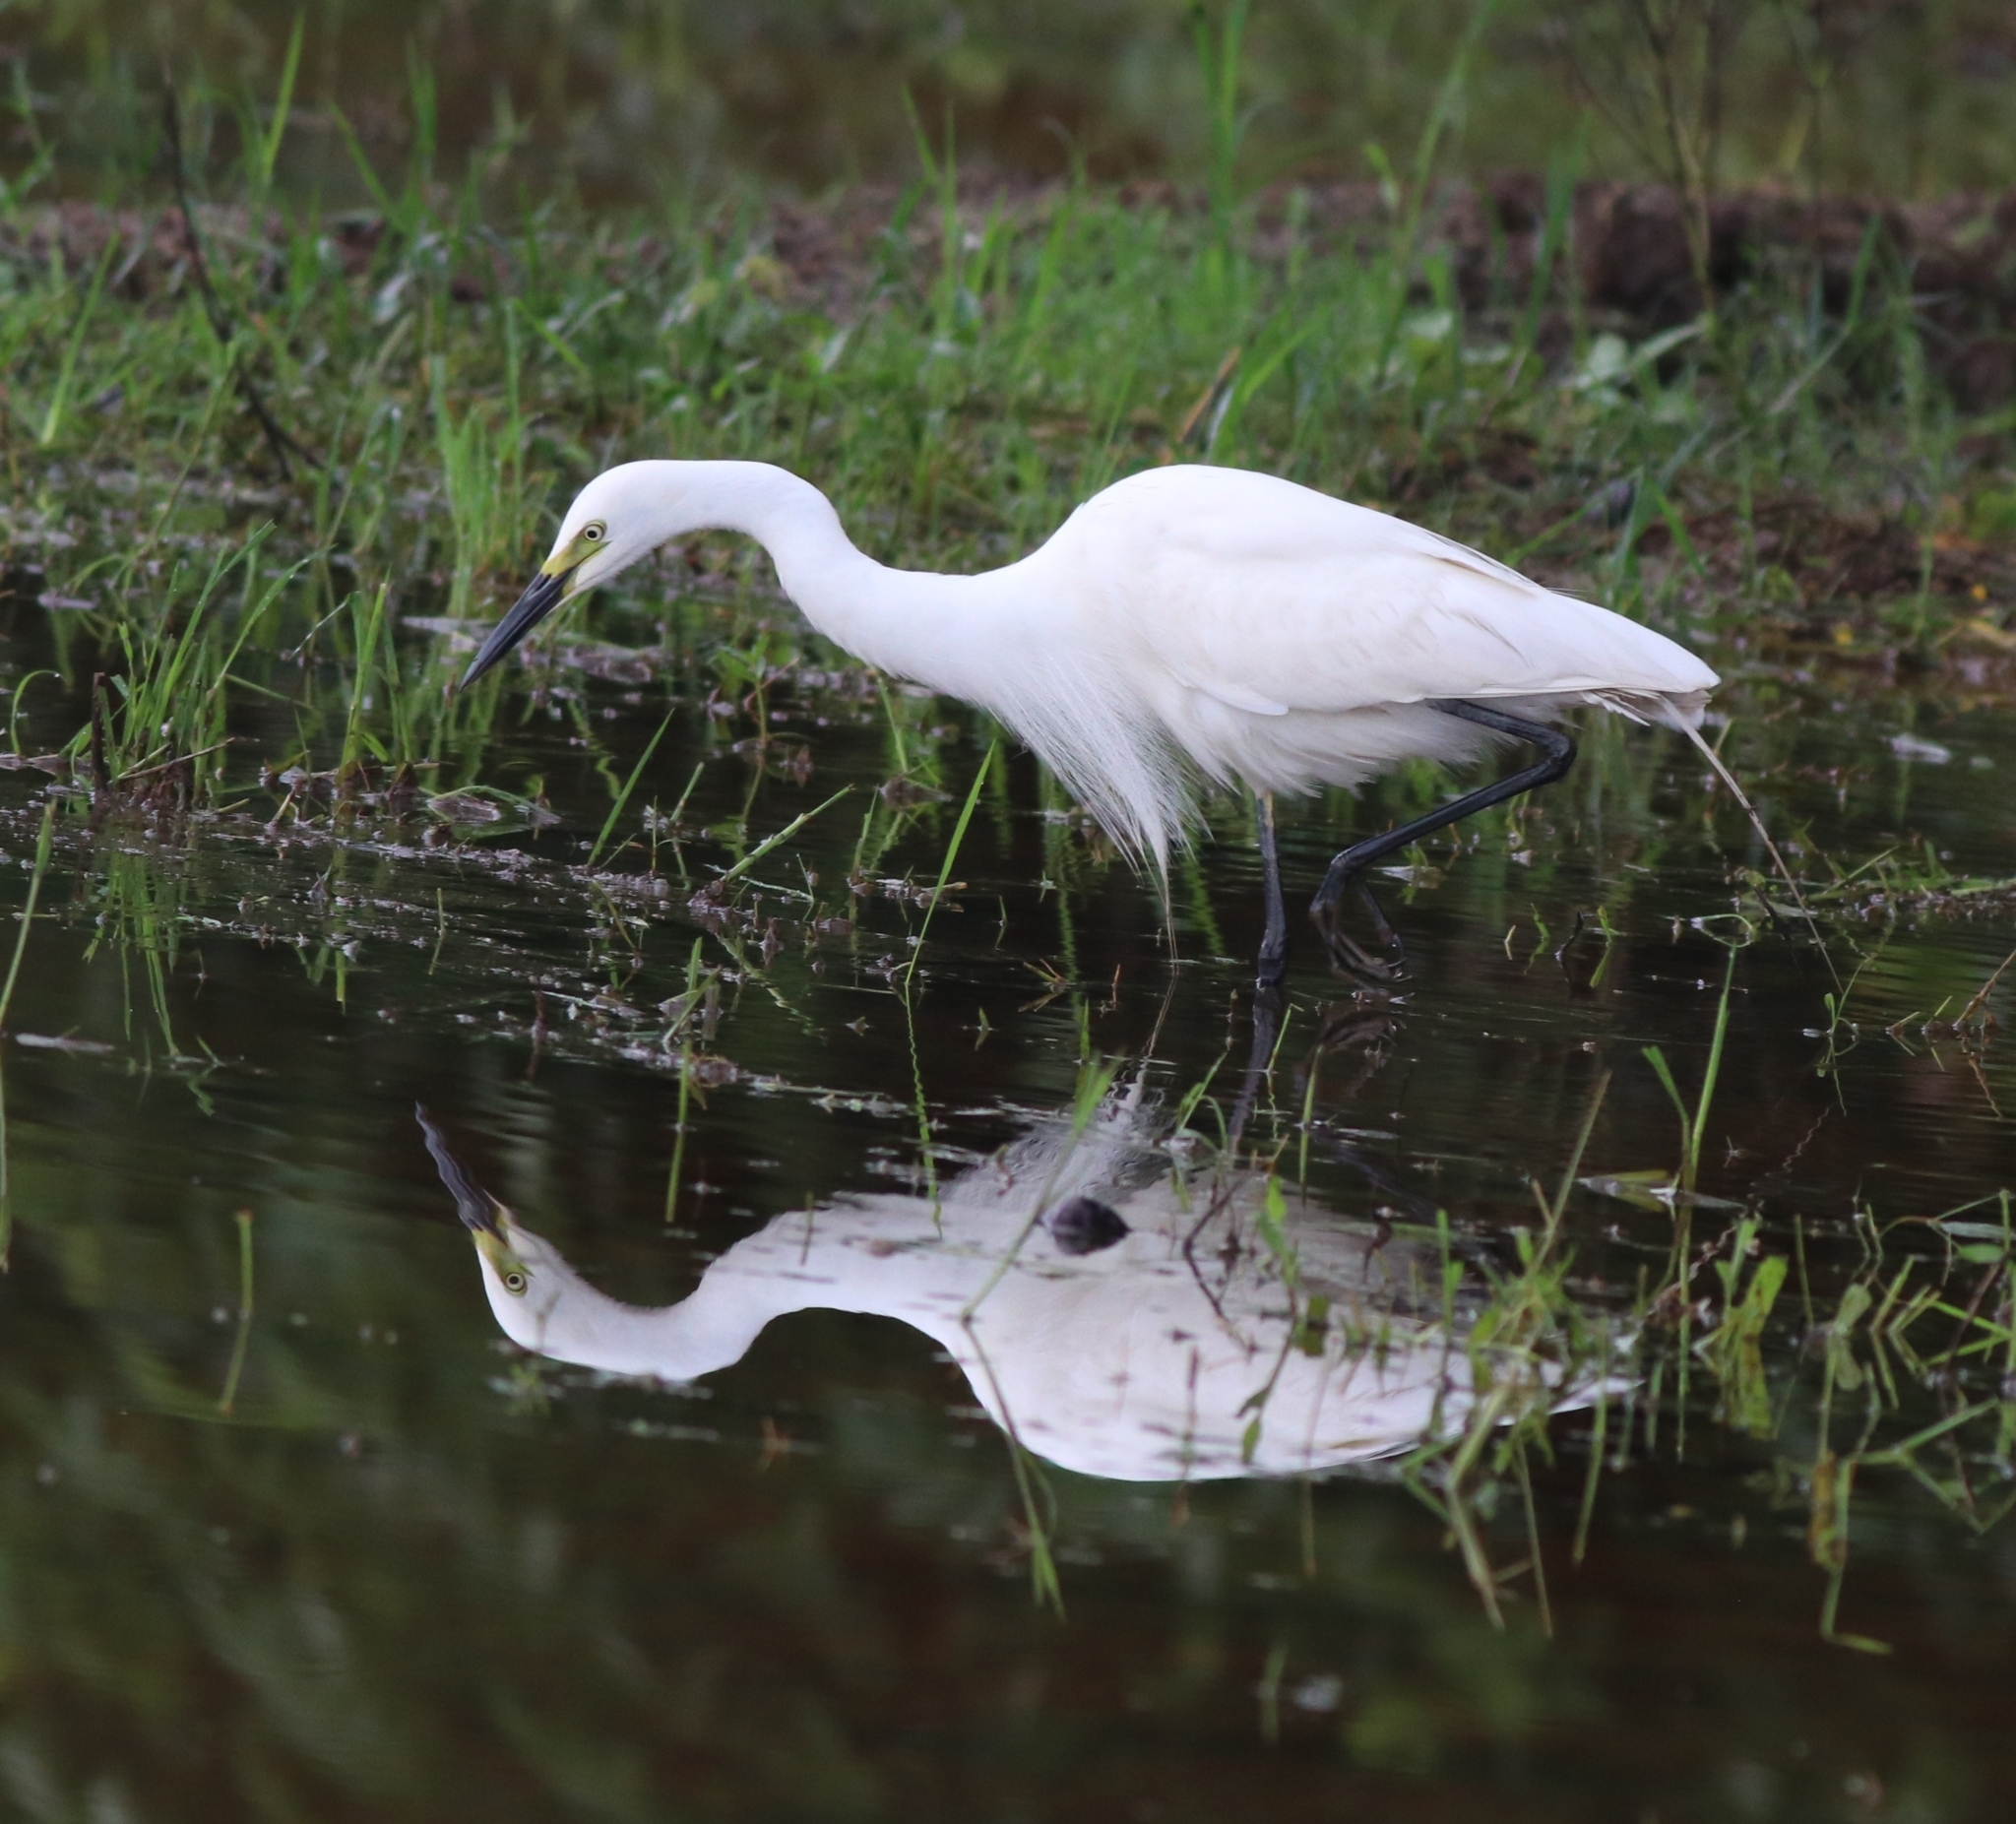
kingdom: Animalia
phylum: Chordata
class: Aves
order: Pelecaniformes
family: Ardeidae
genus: Egretta
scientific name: Egretta intermedia
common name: Intermediate egret
